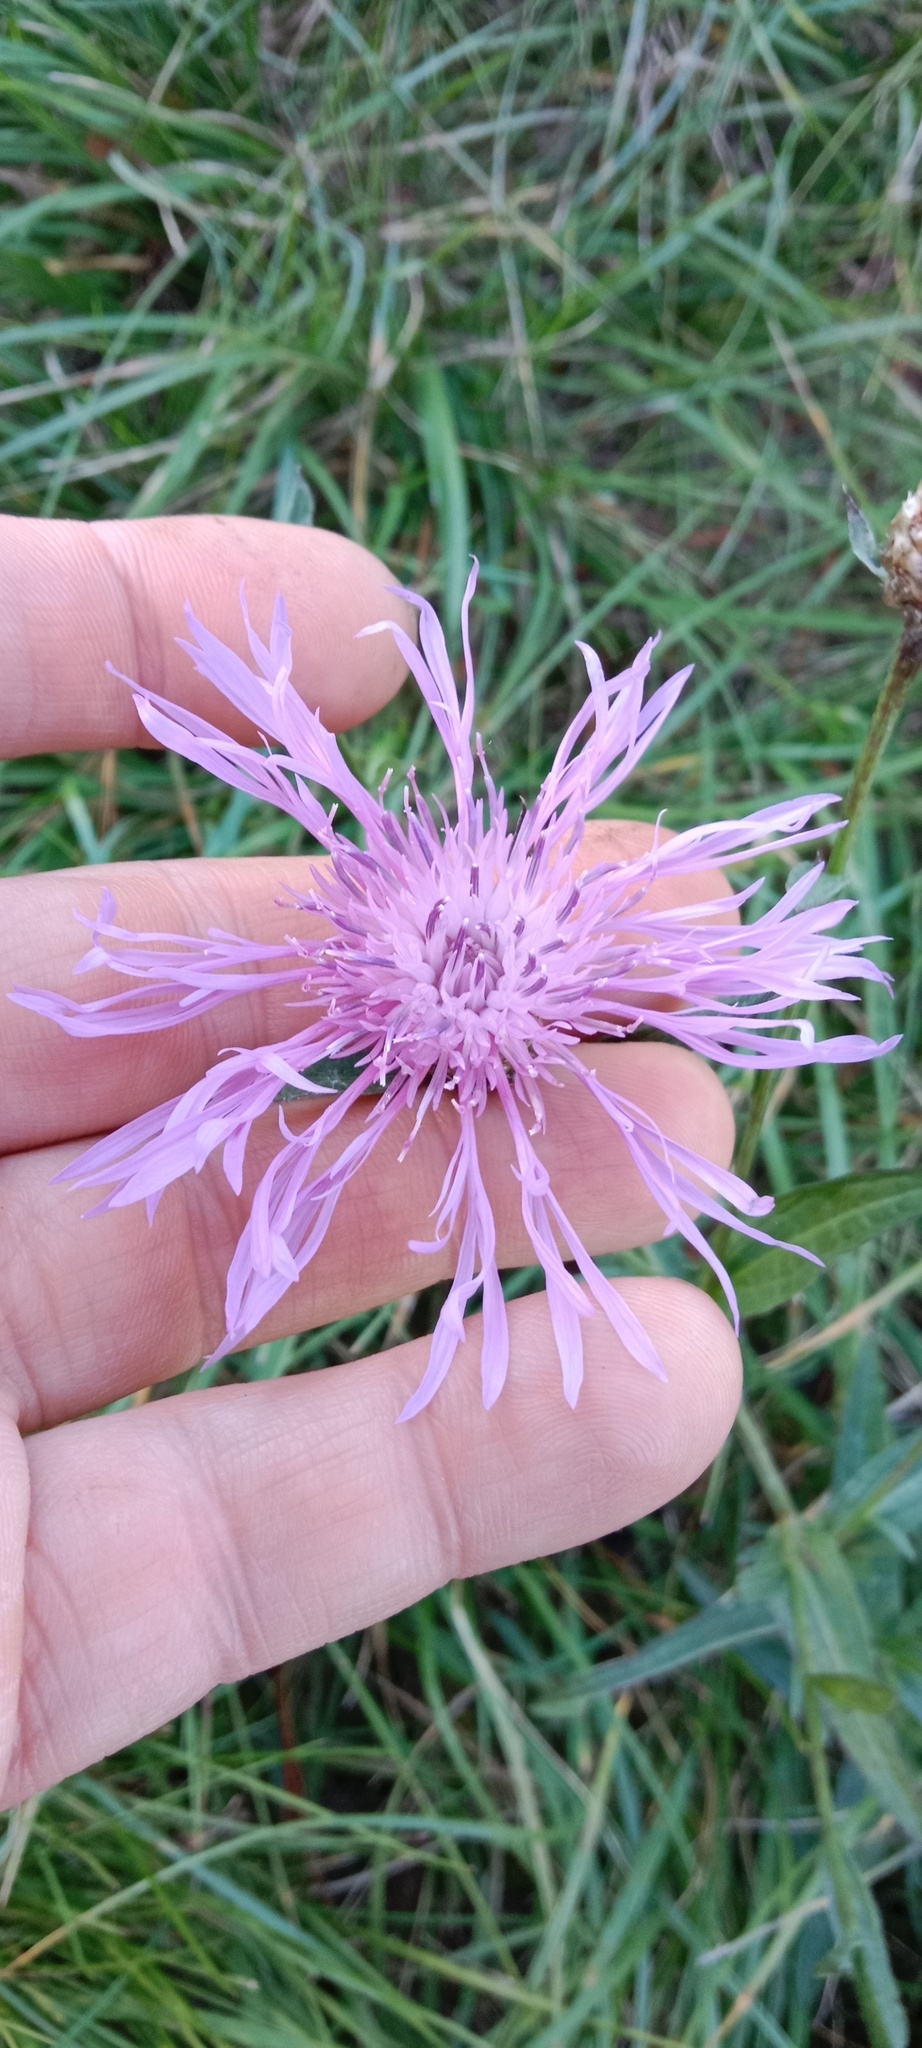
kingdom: Plantae
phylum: Tracheophyta
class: Magnoliopsida
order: Asterales
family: Asteraceae
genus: Centaurea
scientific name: Centaurea jacea
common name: Brown knapweed
